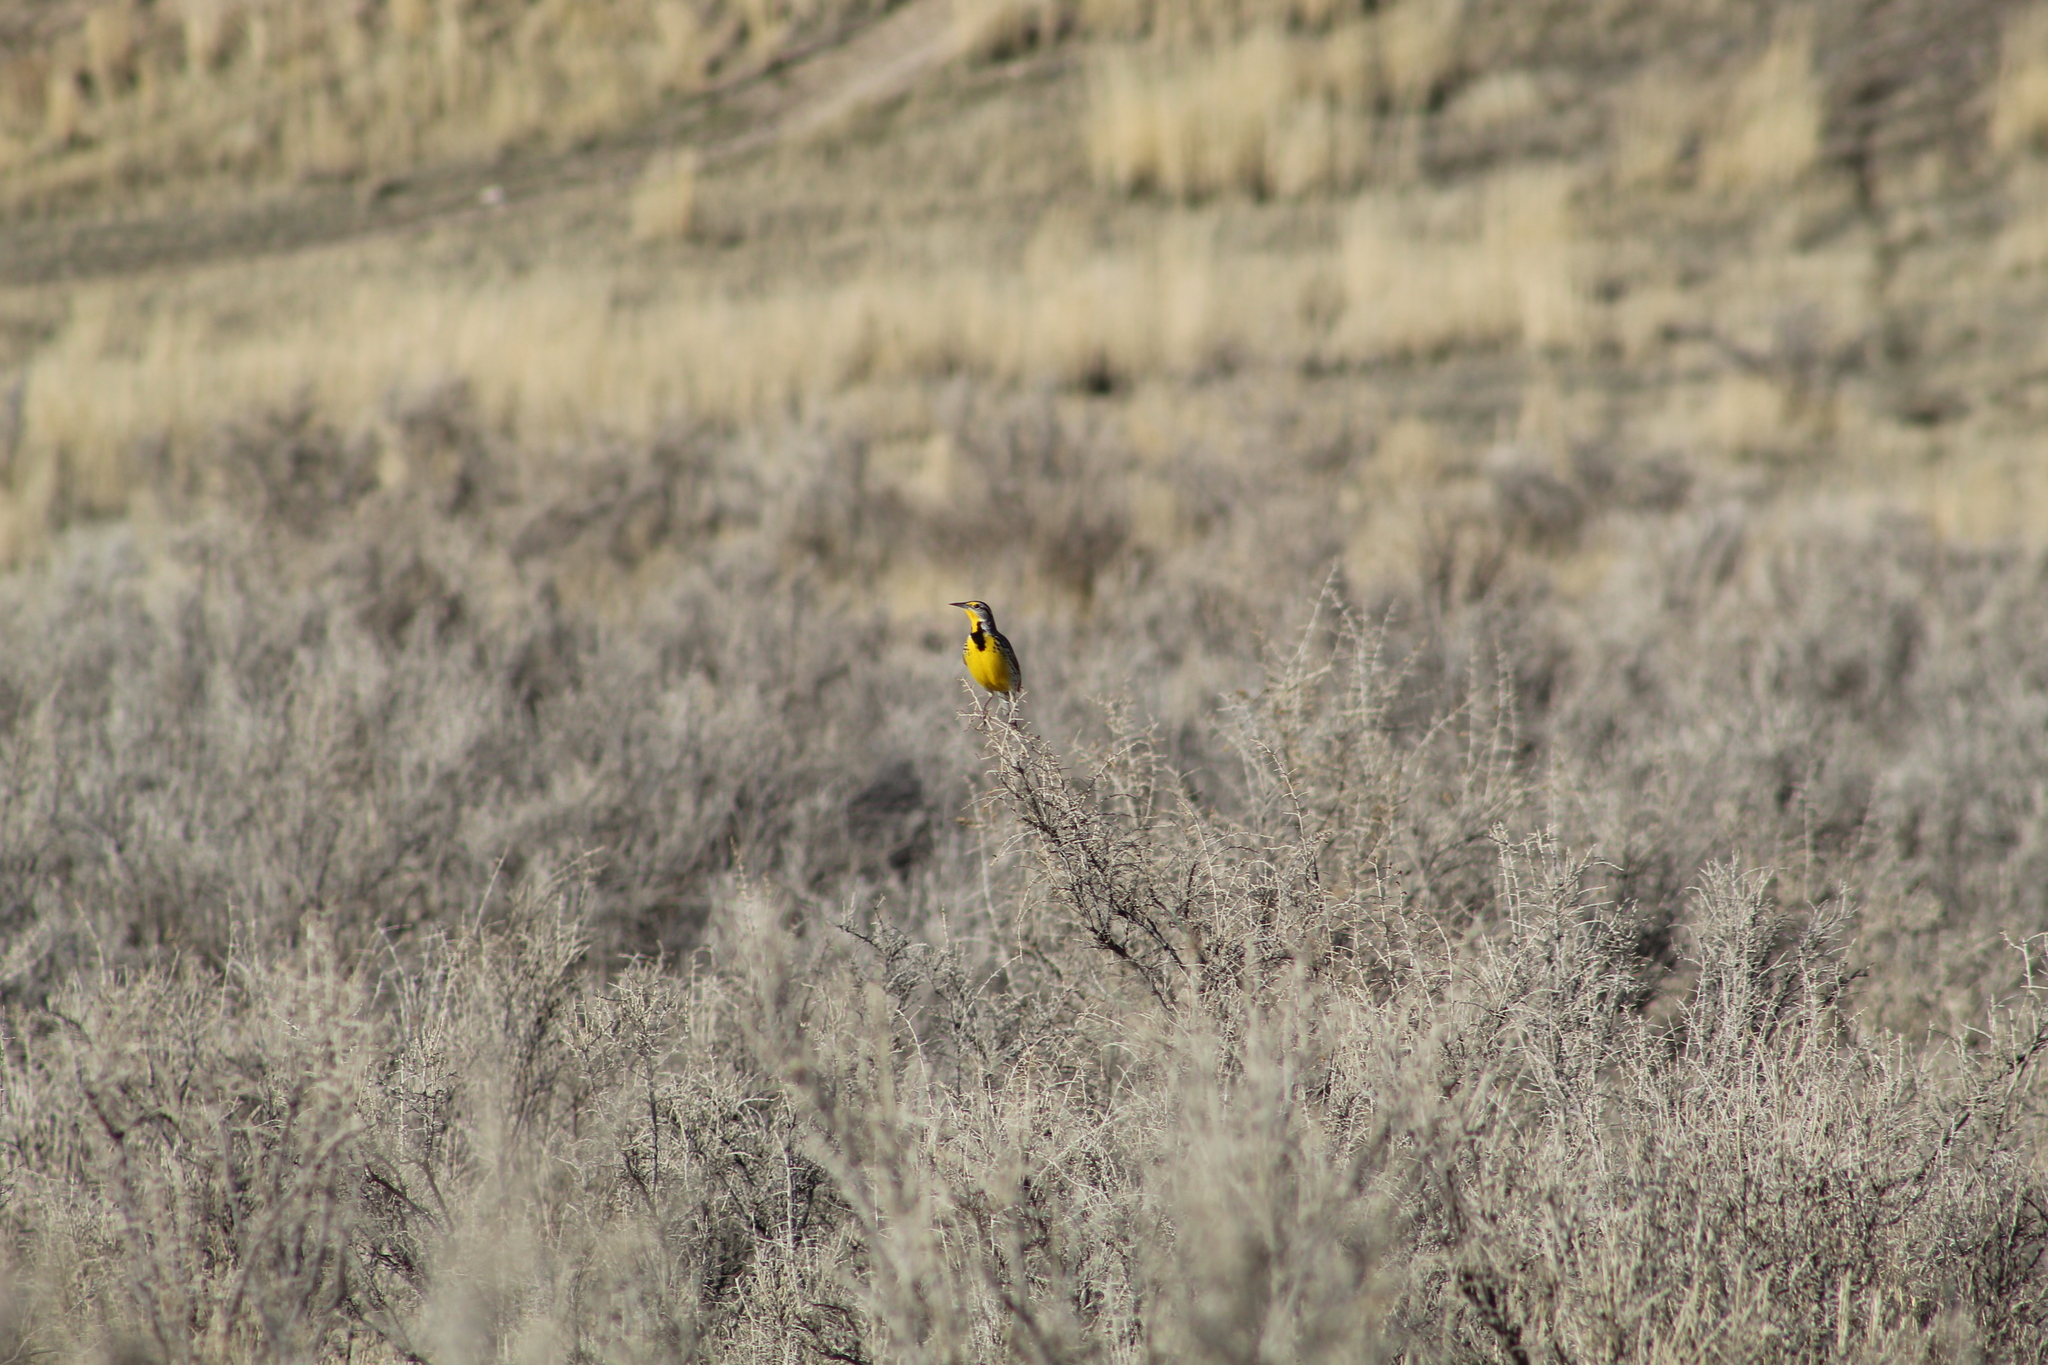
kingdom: Animalia
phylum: Chordata
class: Aves
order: Passeriformes
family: Icteridae
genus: Sturnella
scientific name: Sturnella neglecta
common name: Western meadowlark
